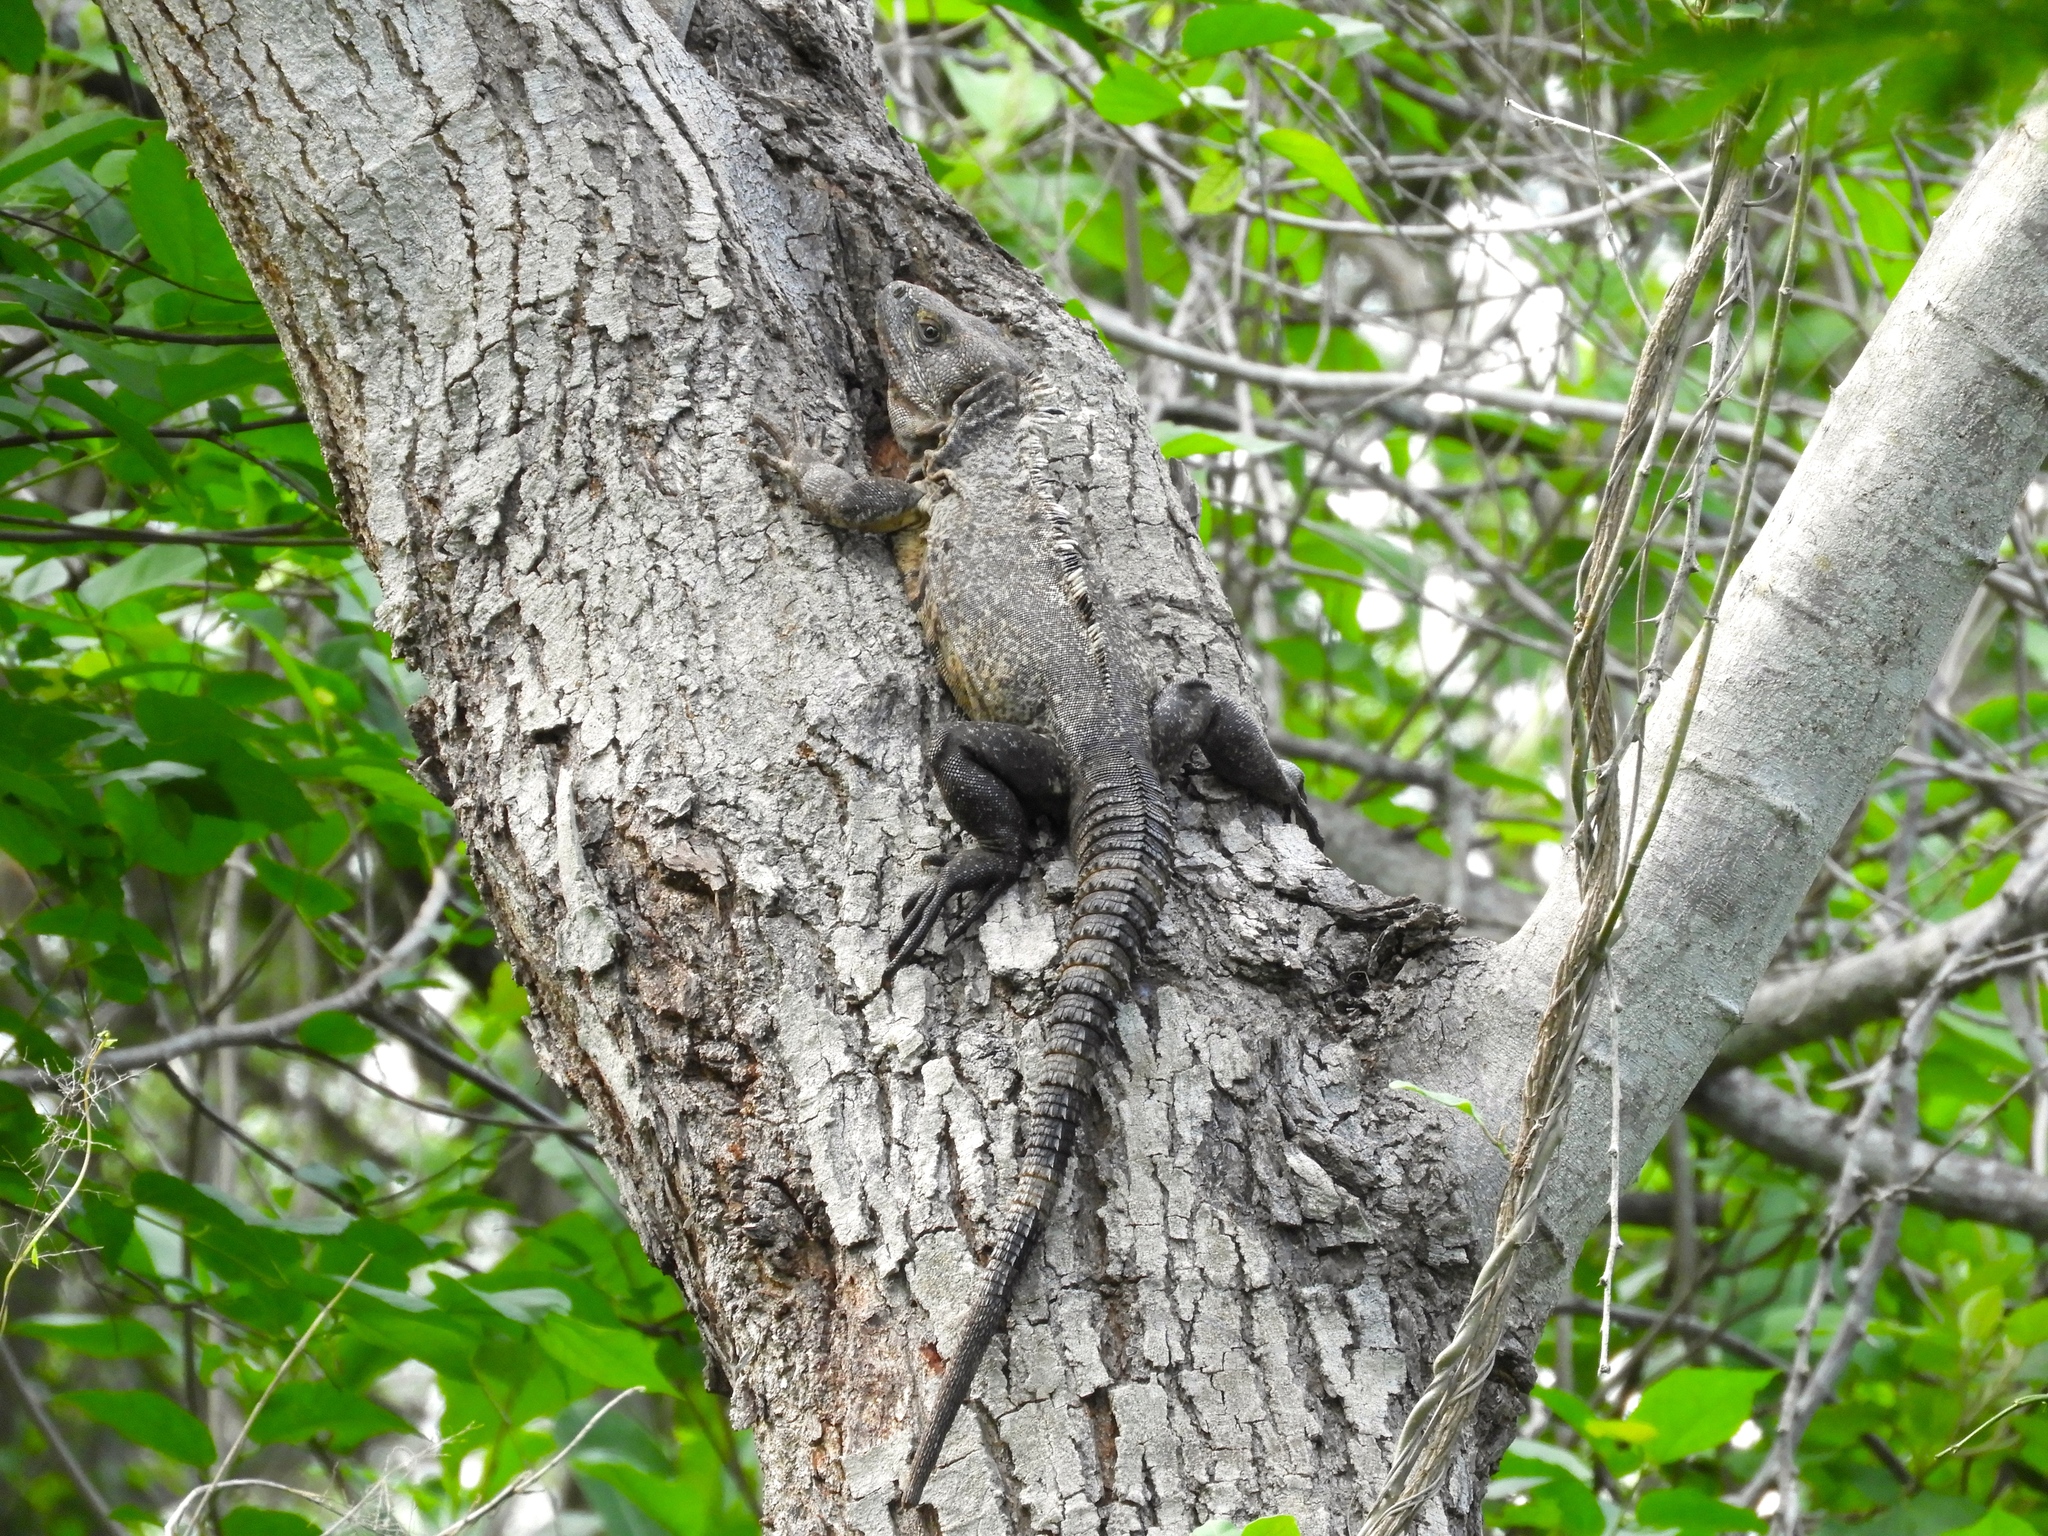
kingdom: Animalia
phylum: Chordata
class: Squamata
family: Iguanidae
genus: Ctenosaura
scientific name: Ctenosaura pectinata
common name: Guerreran spiny-tailed iguana
